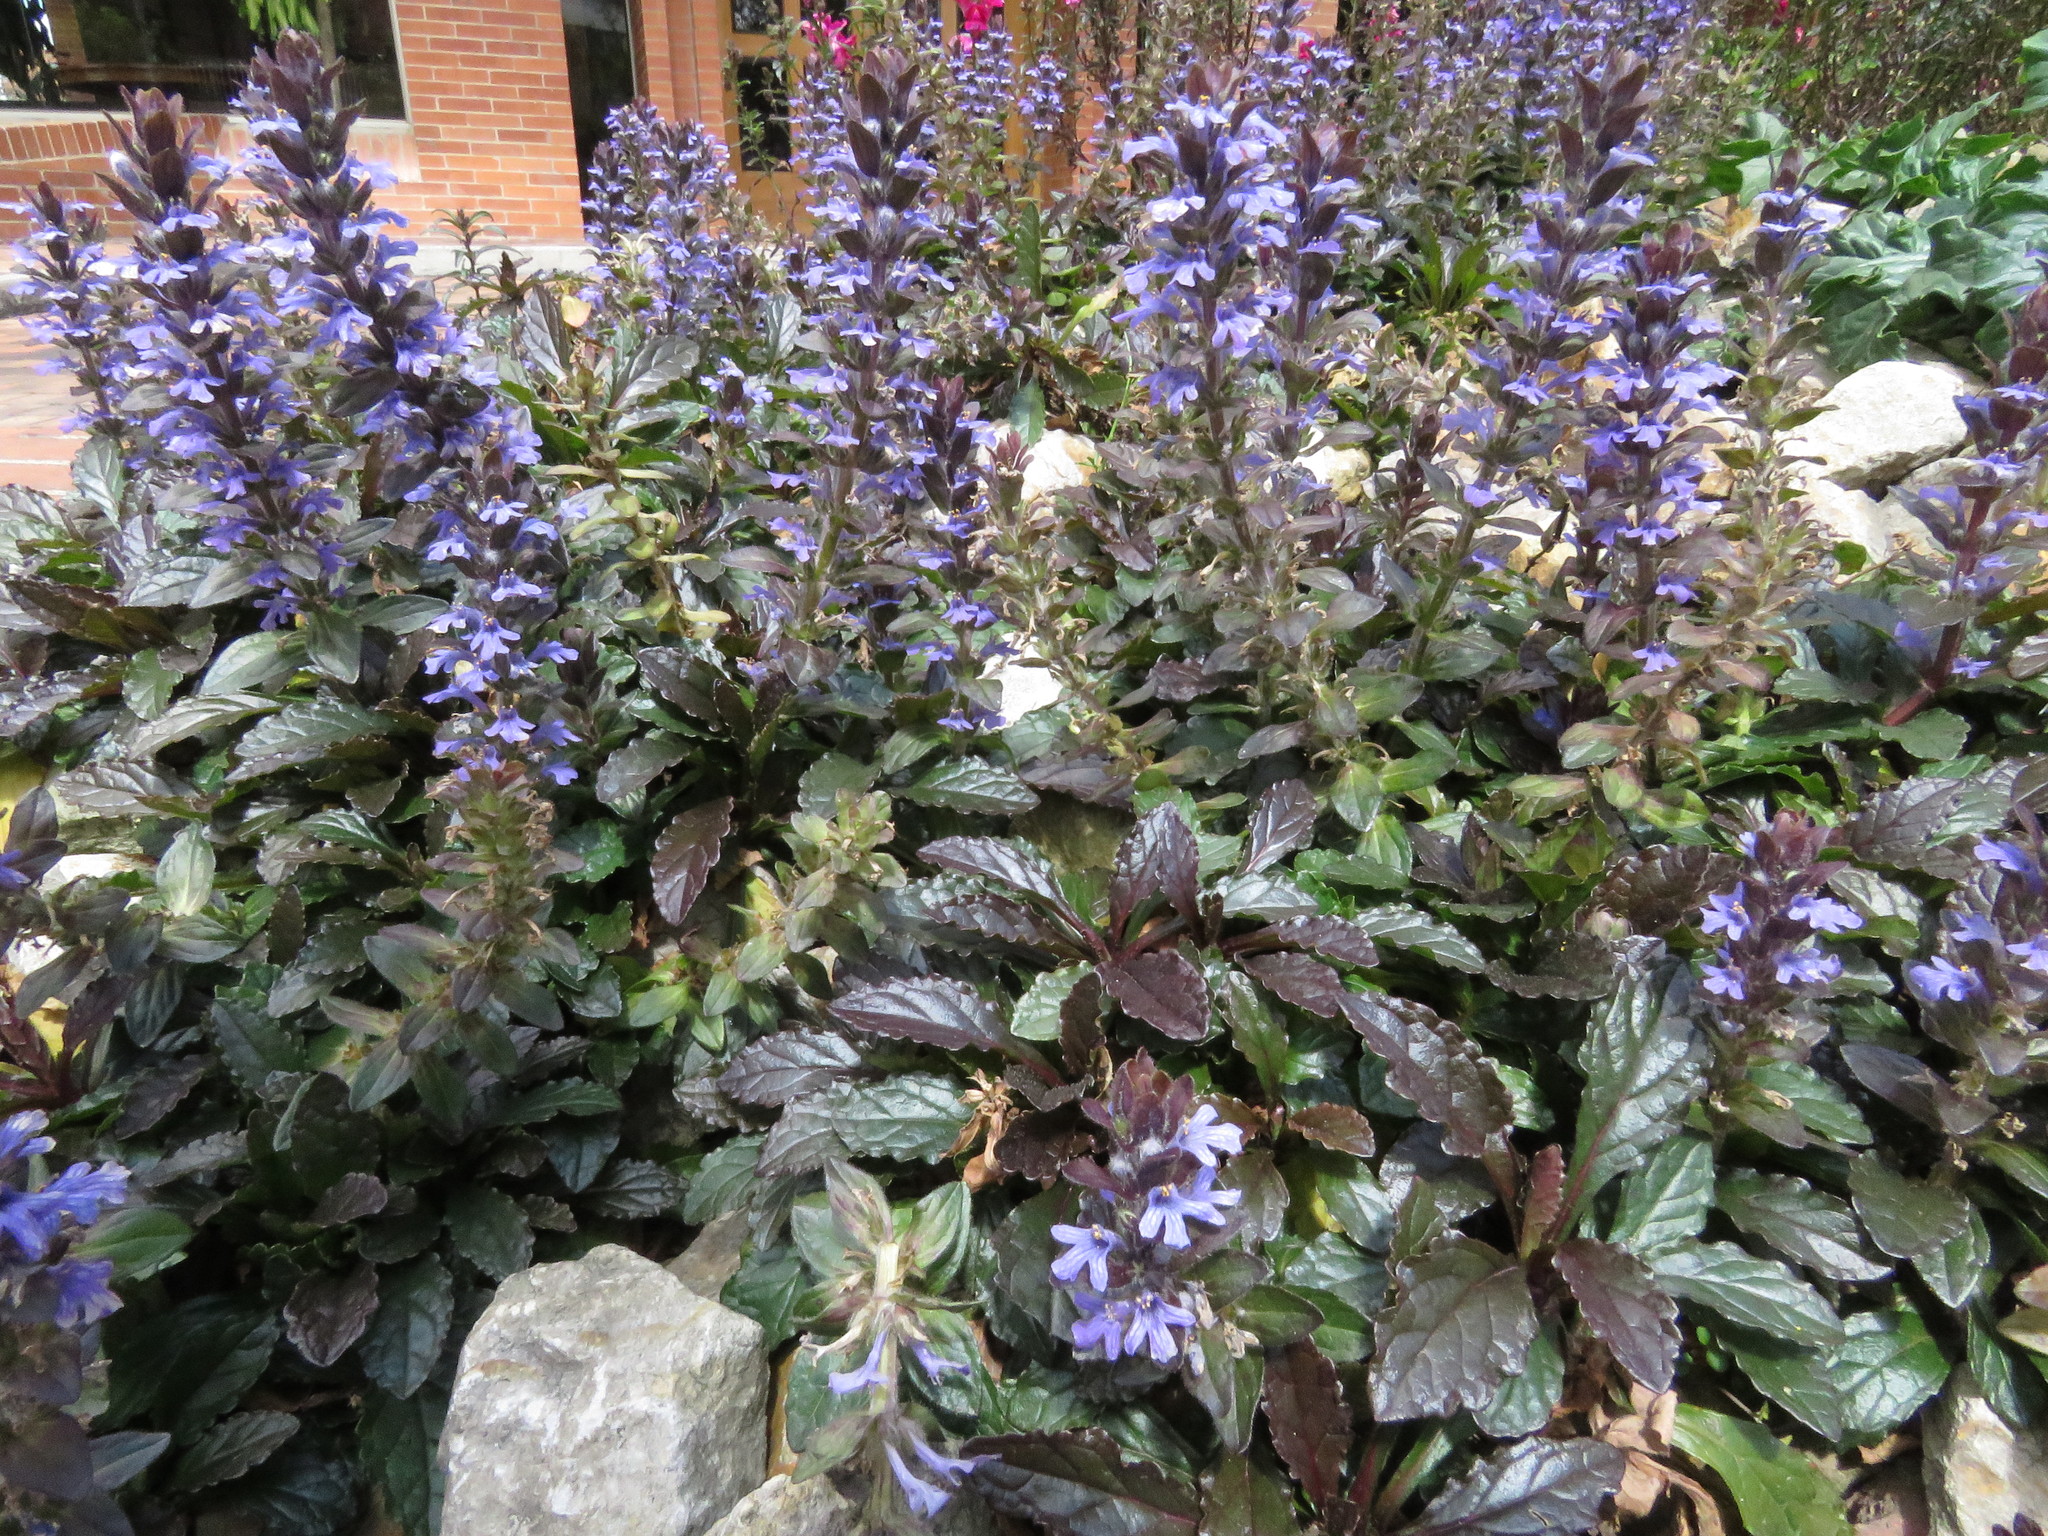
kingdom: Plantae
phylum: Tracheophyta
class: Magnoliopsida
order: Lamiales
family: Lamiaceae
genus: Ajuga
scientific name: Ajuga reptans
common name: Bugle
